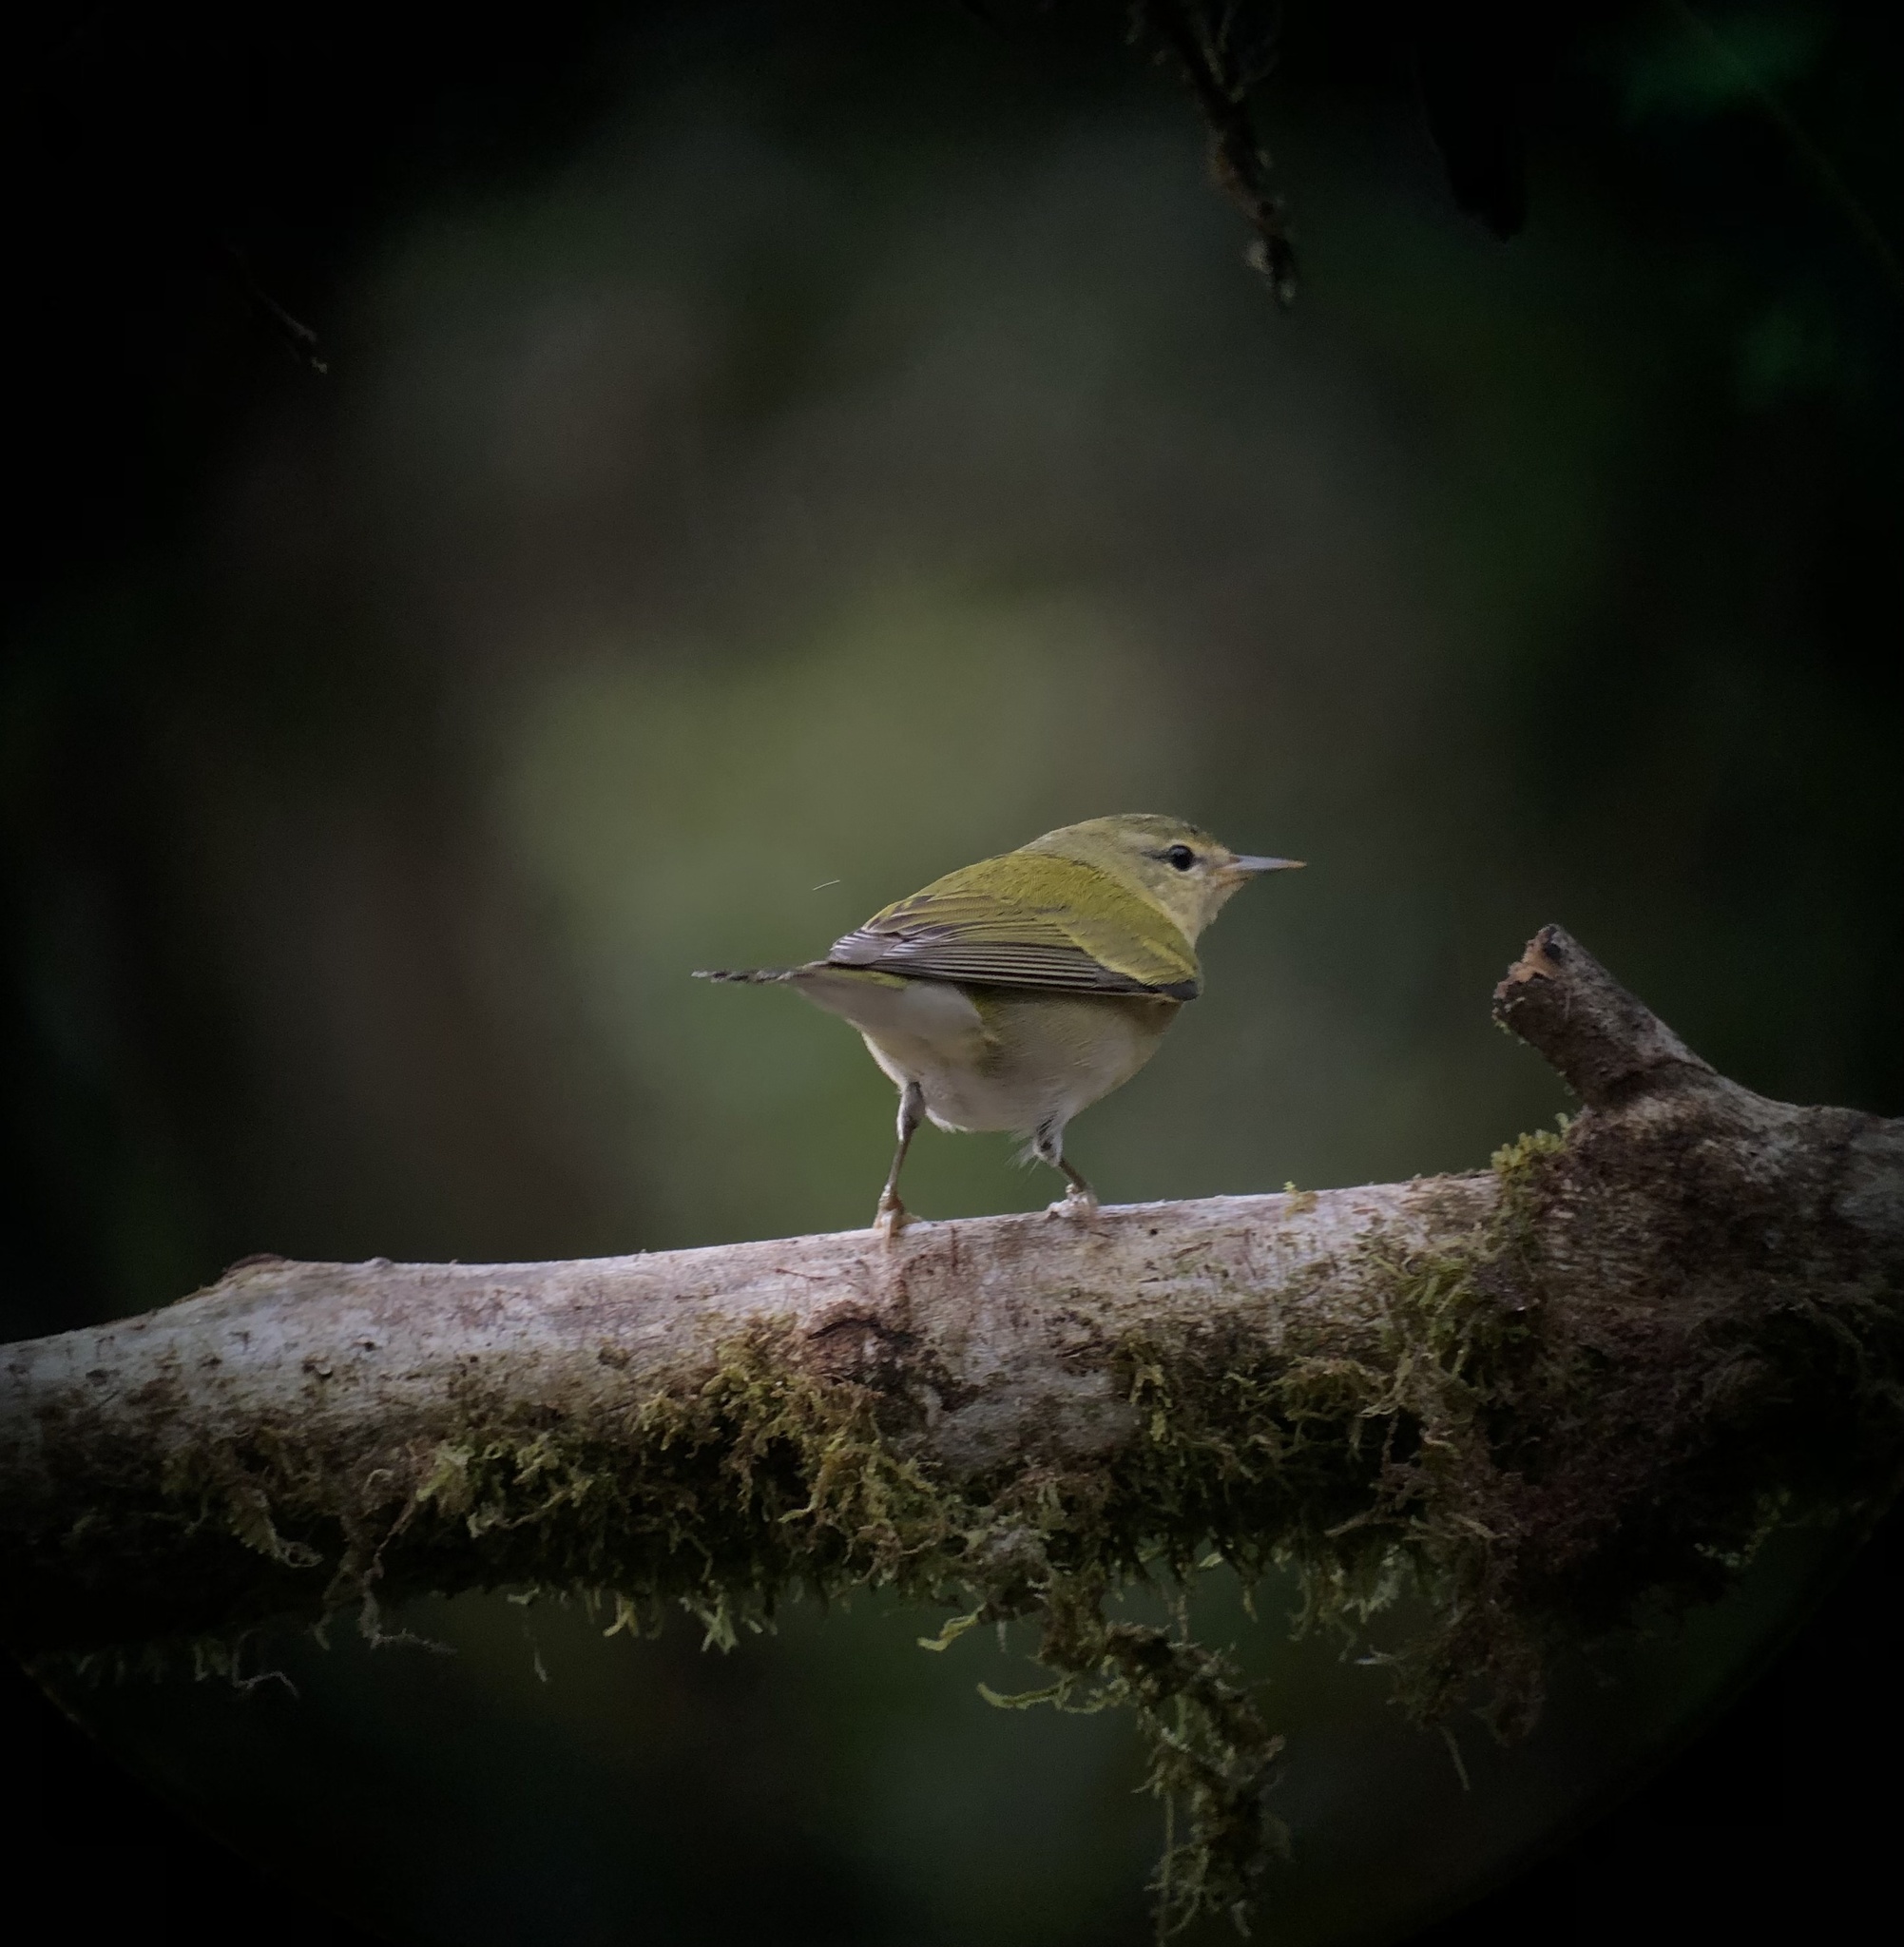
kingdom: Animalia
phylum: Chordata
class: Aves
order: Passeriformes
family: Parulidae
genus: Leiothlypis
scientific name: Leiothlypis peregrina
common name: Tennessee warbler
